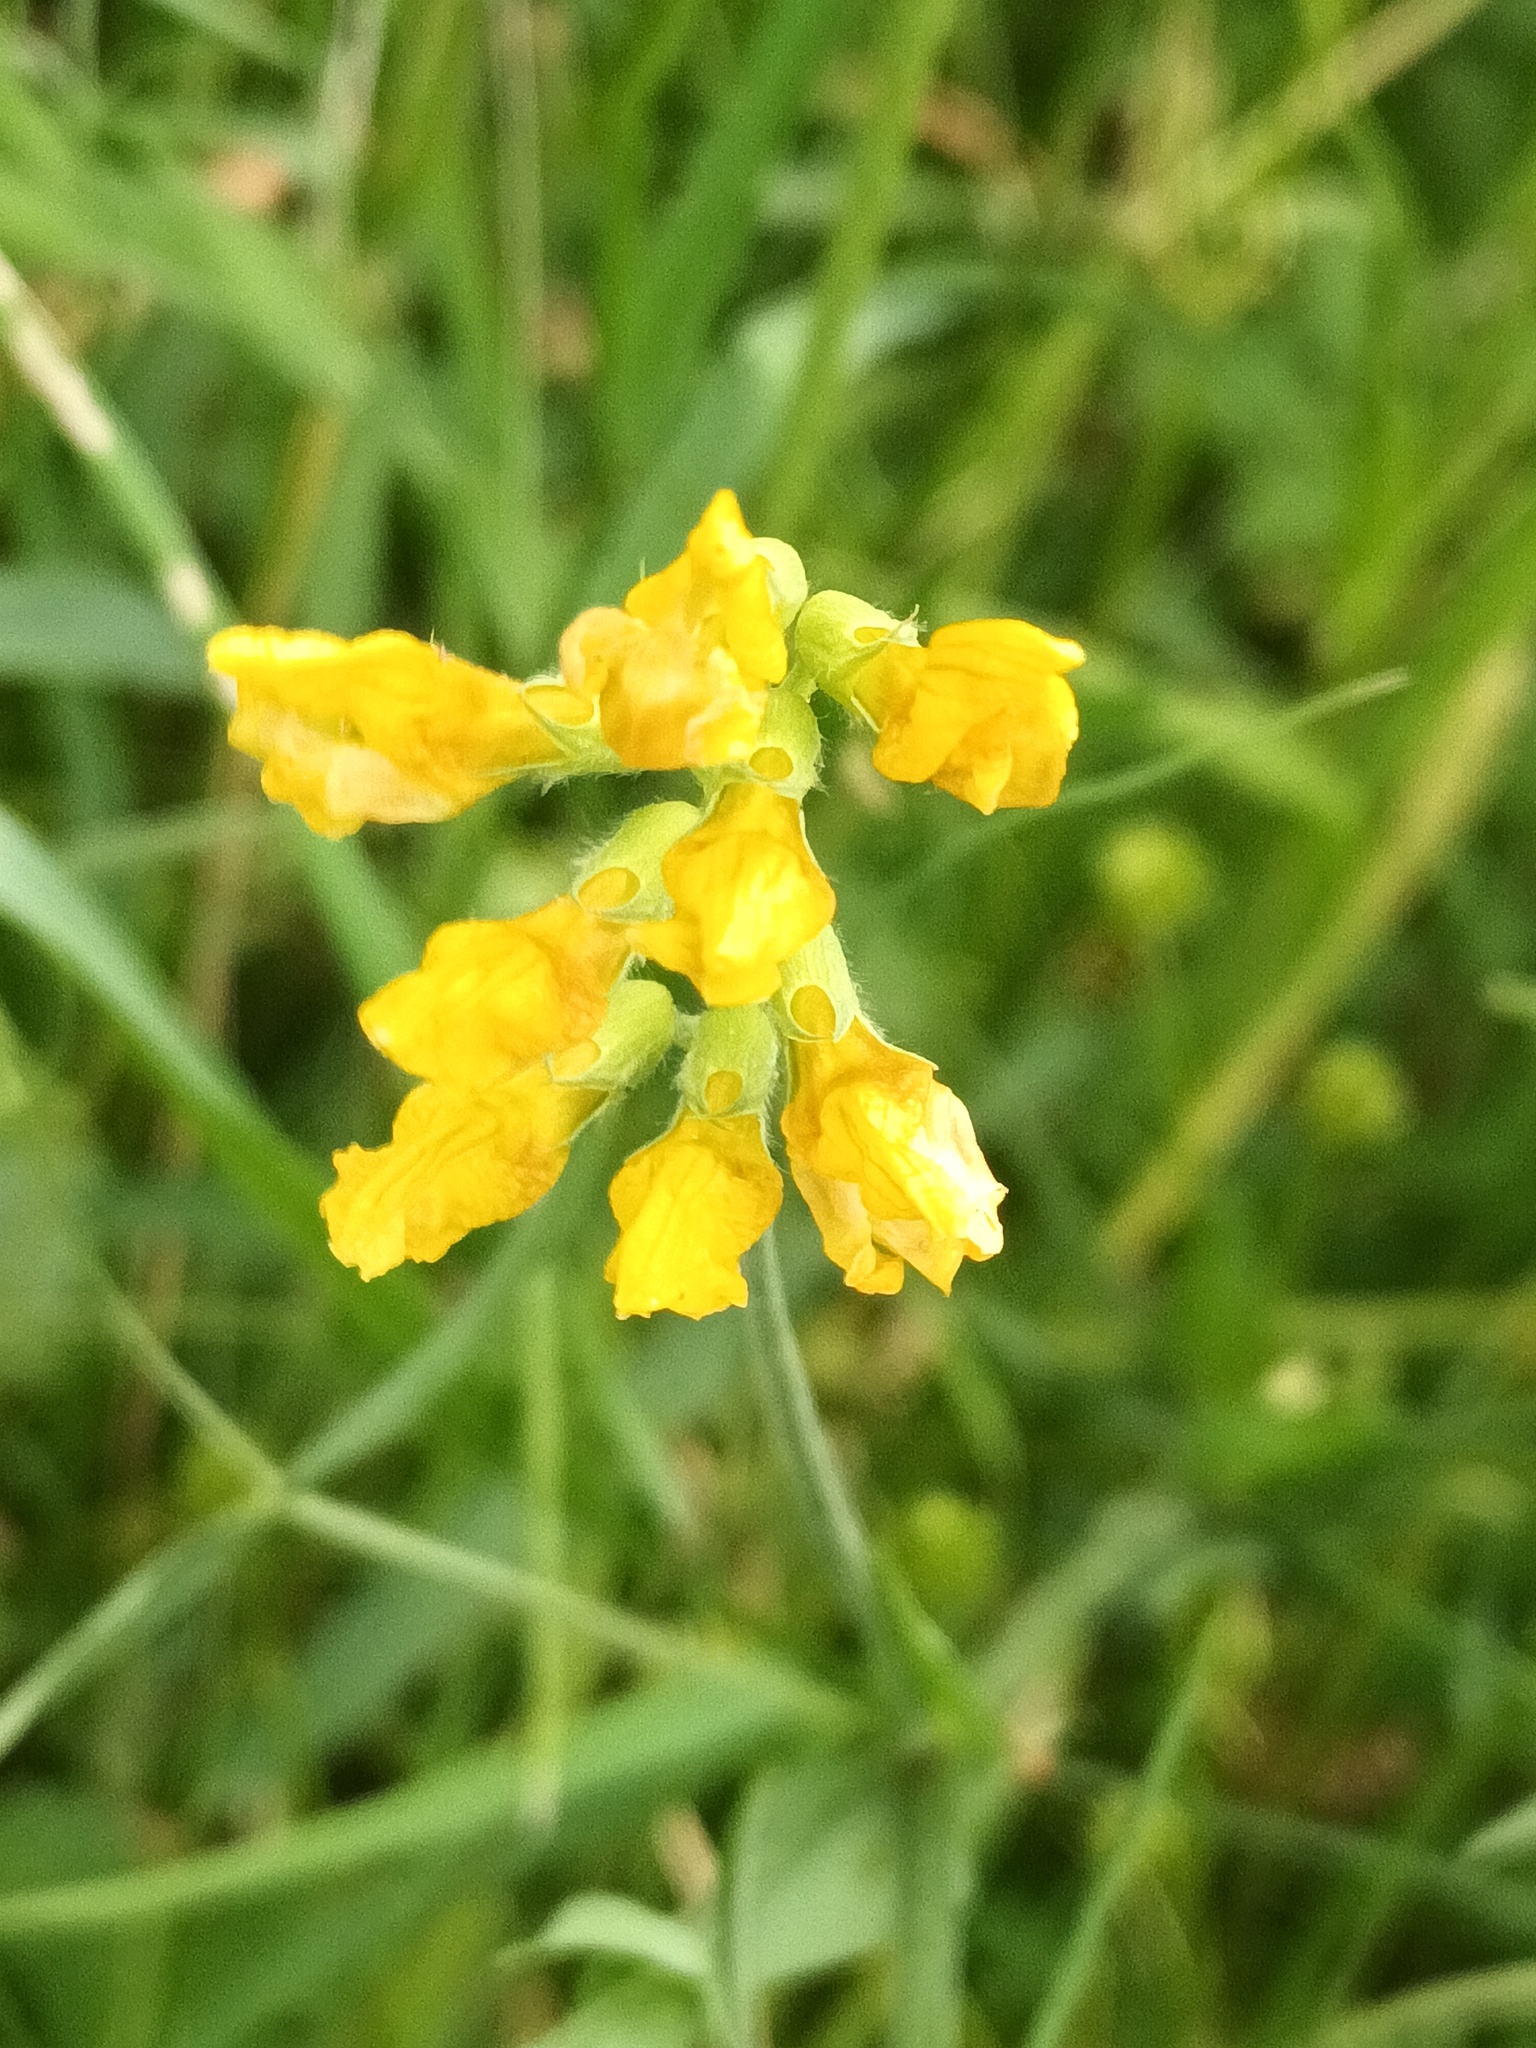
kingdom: Plantae
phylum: Tracheophyta
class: Magnoliopsida
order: Fabales
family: Fabaceae
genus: Lathyrus
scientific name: Lathyrus pratensis
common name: Meadow vetchling
